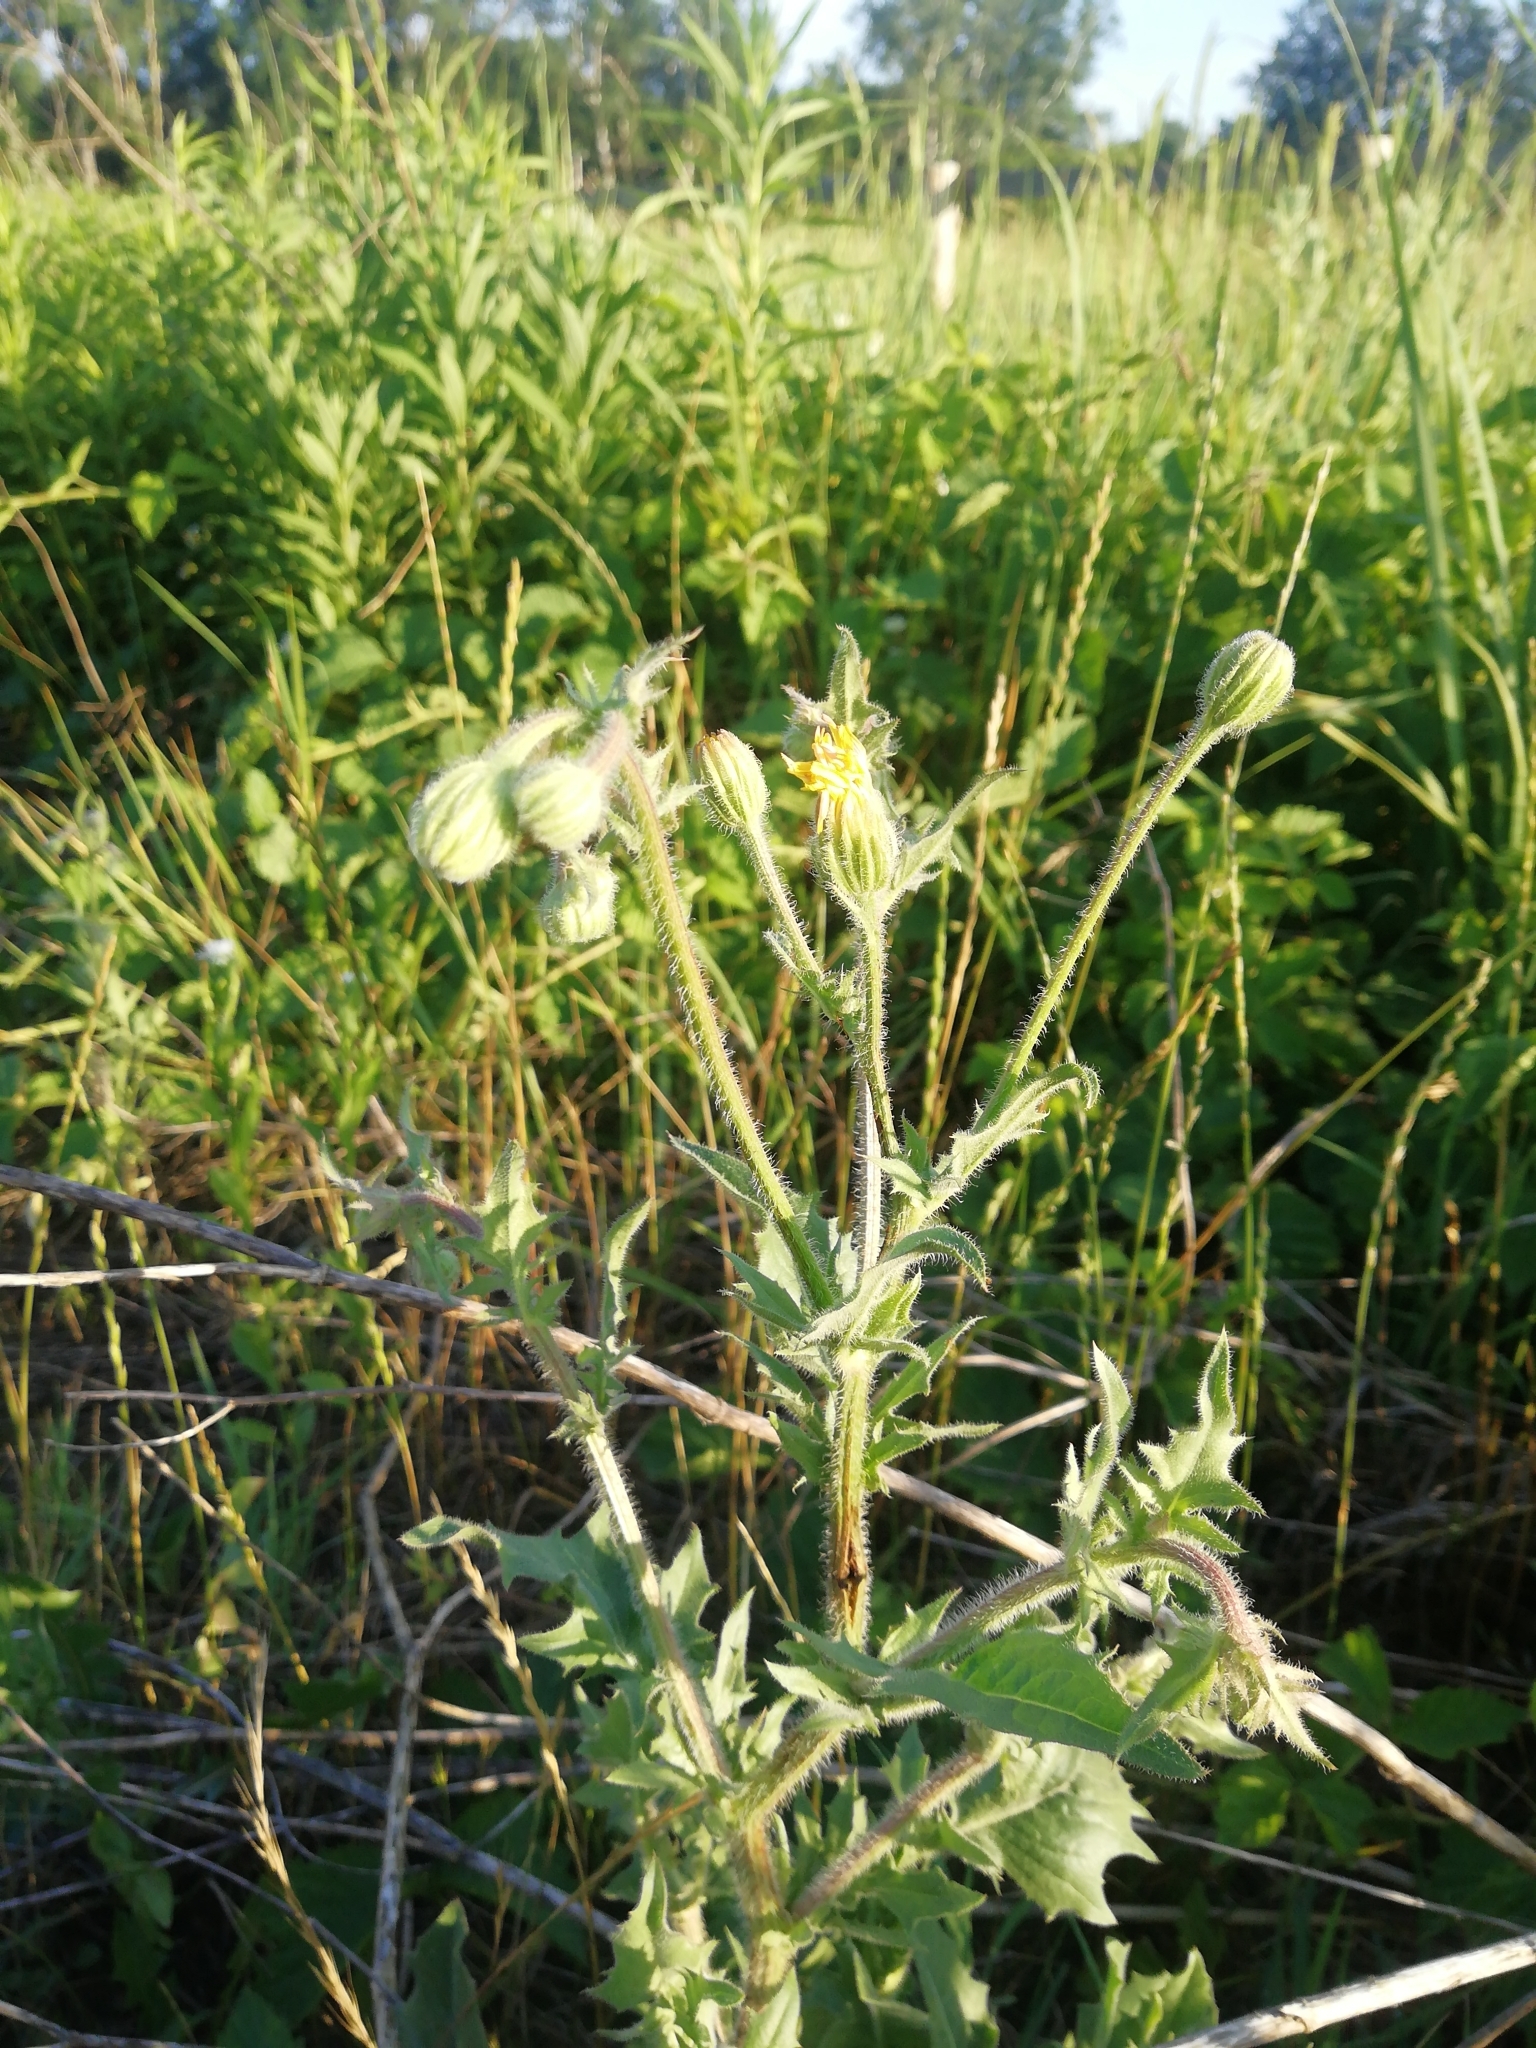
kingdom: Plantae
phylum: Tracheophyta
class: Magnoliopsida
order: Asterales
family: Asteraceae
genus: Crepis
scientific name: Crepis foetida
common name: Stinking hawk's-beard
